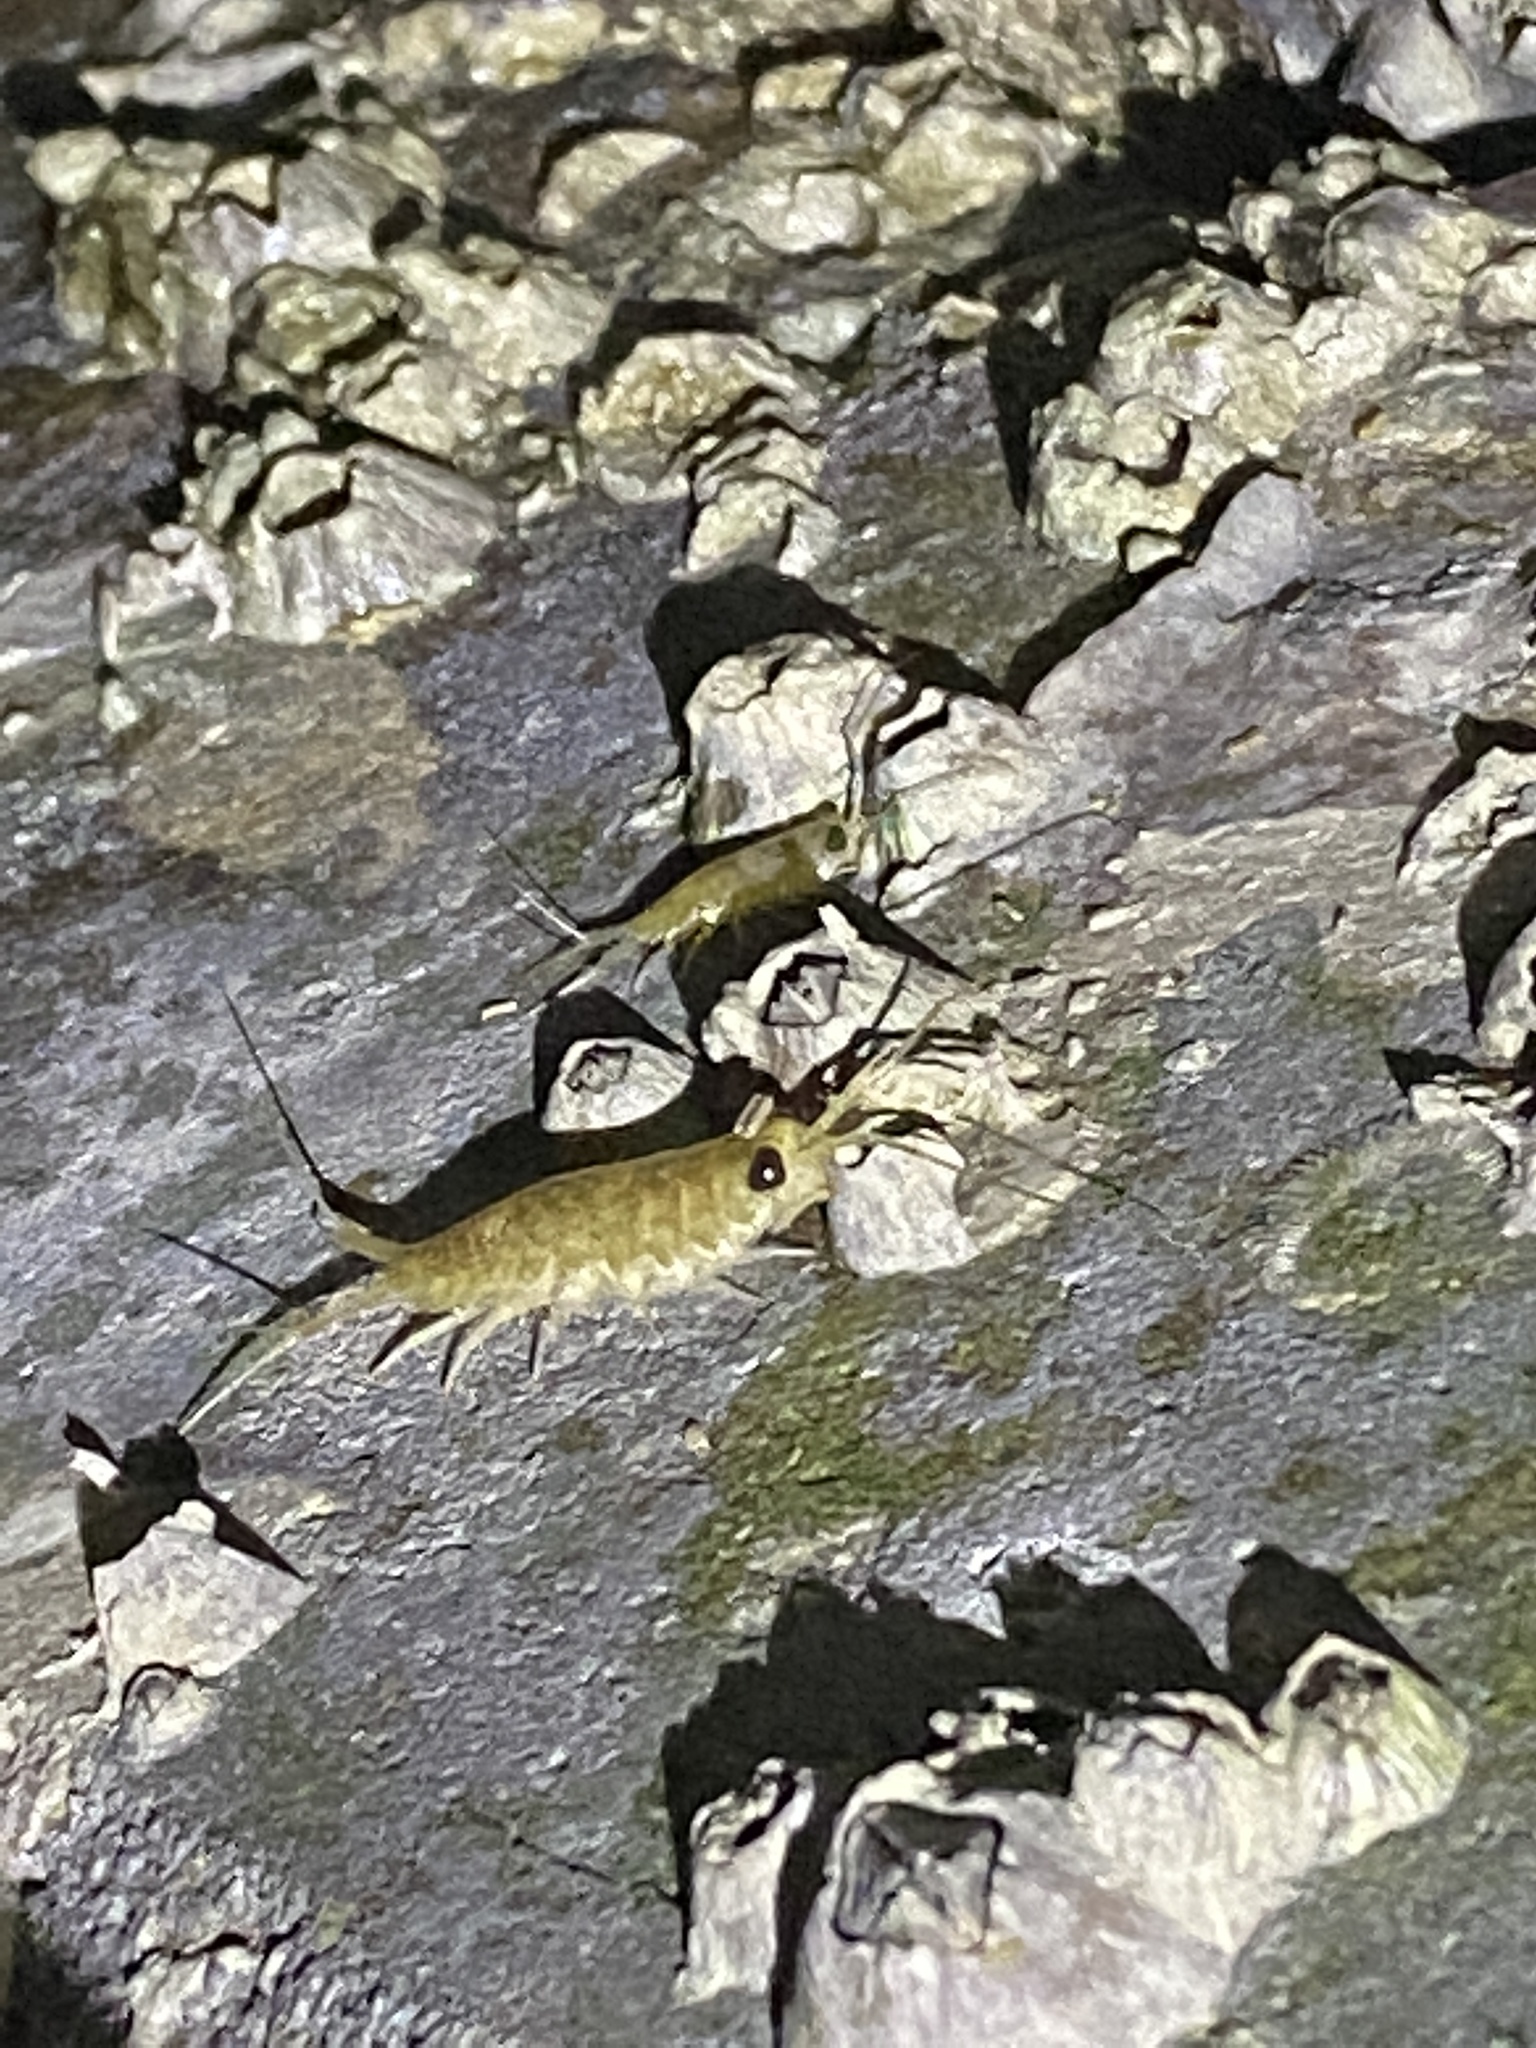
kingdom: Animalia
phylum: Arthropoda
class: Malacostraca
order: Isopoda
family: Ligiidae
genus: Ligia
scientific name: Ligia exotica
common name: Wharf roach
